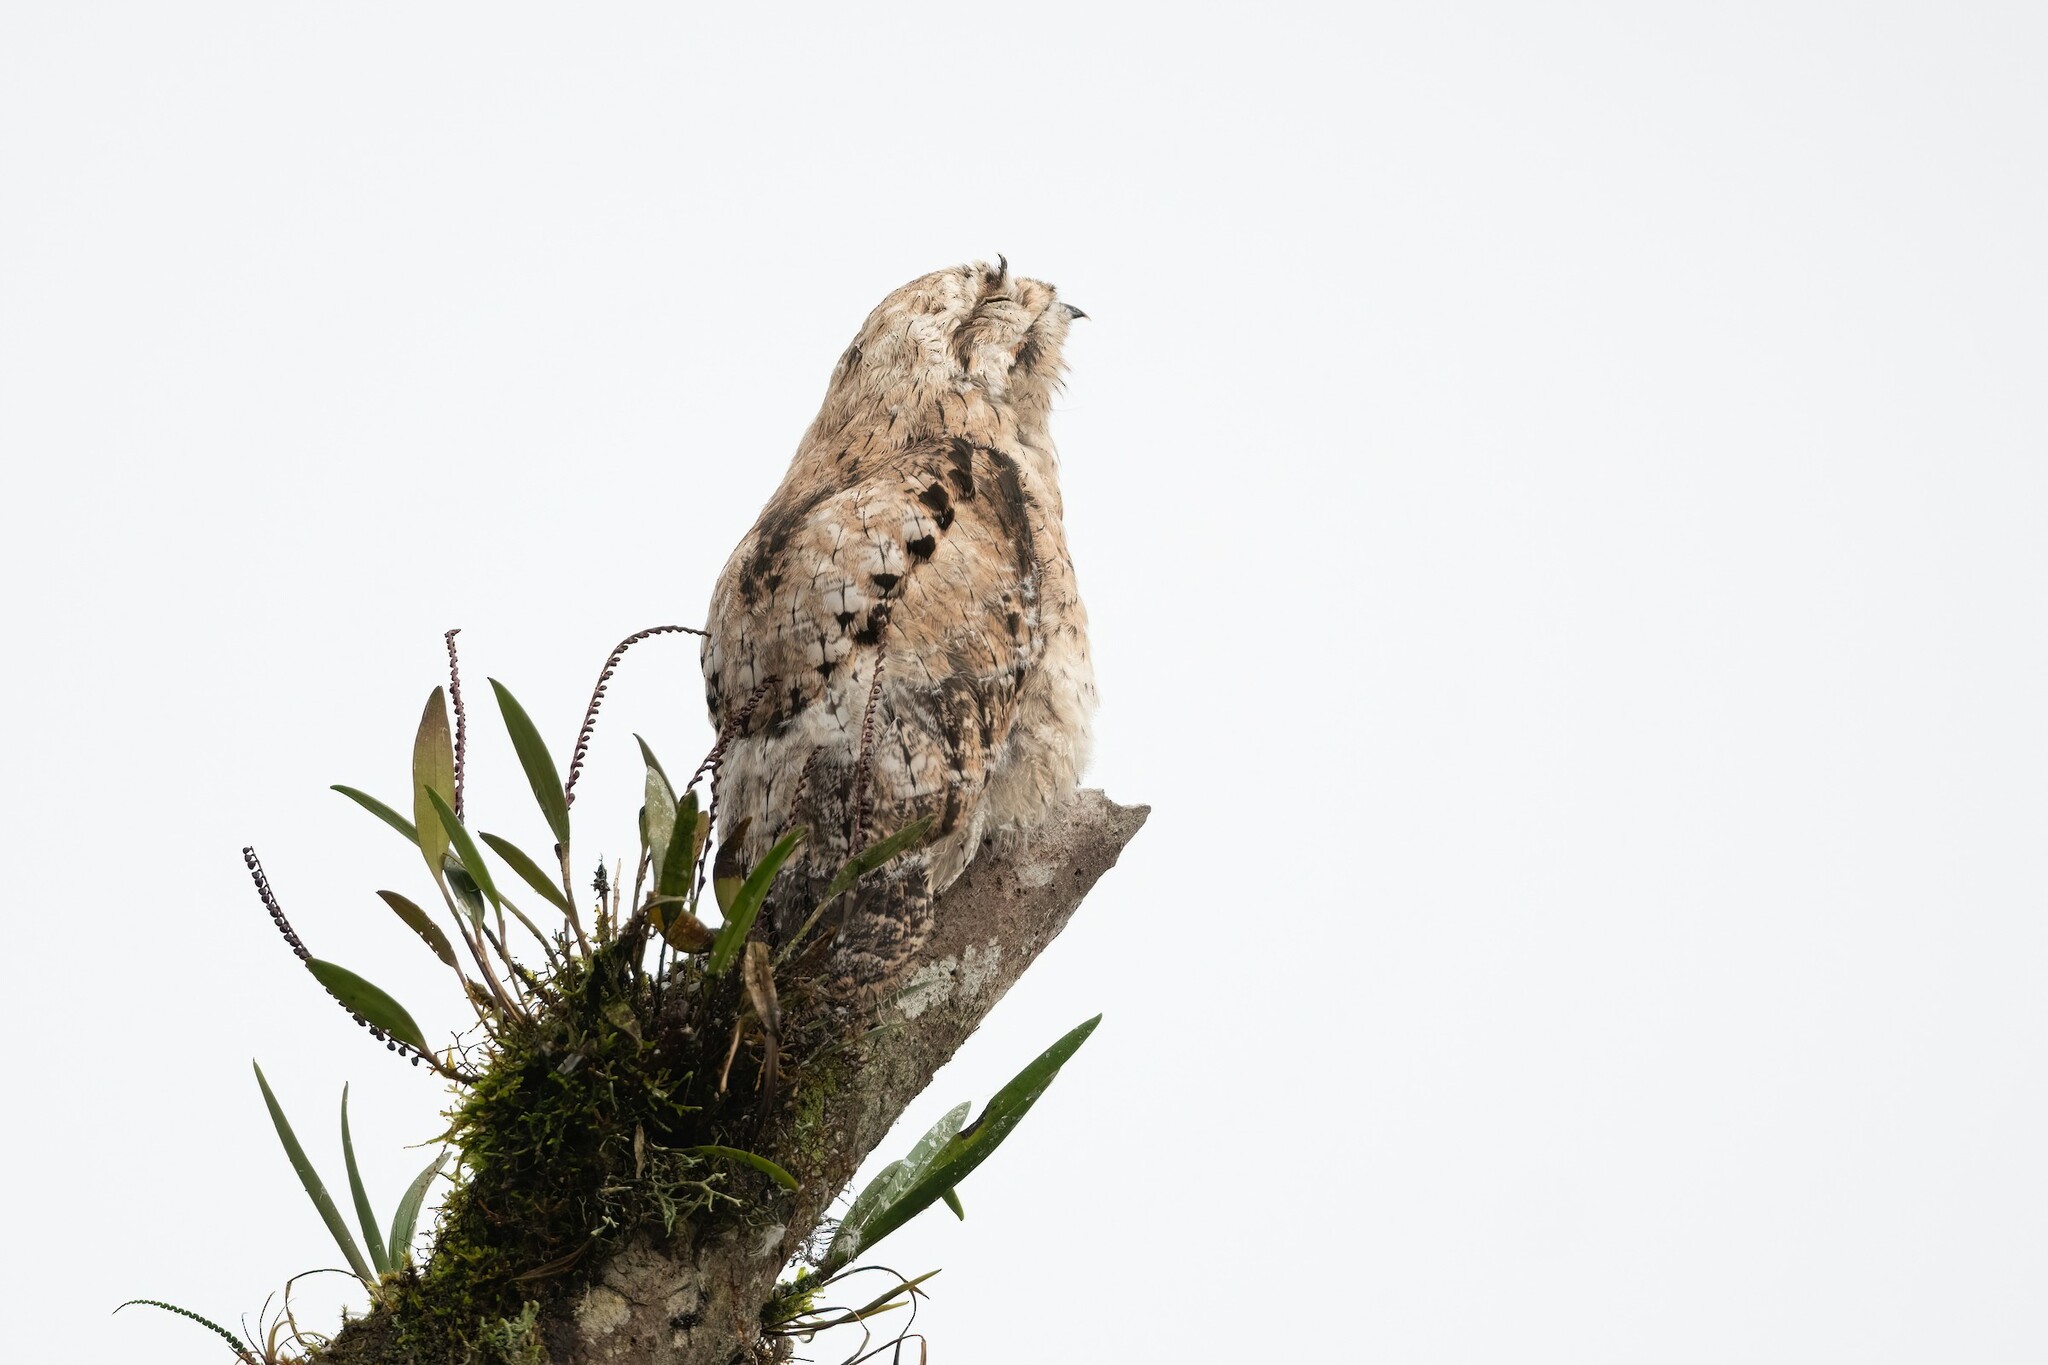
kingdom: Animalia
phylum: Chordata
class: Aves
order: Nyctibiiformes
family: Nyctibiidae
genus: Nyctibius
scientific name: Nyctibius griseus
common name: Common potoo
